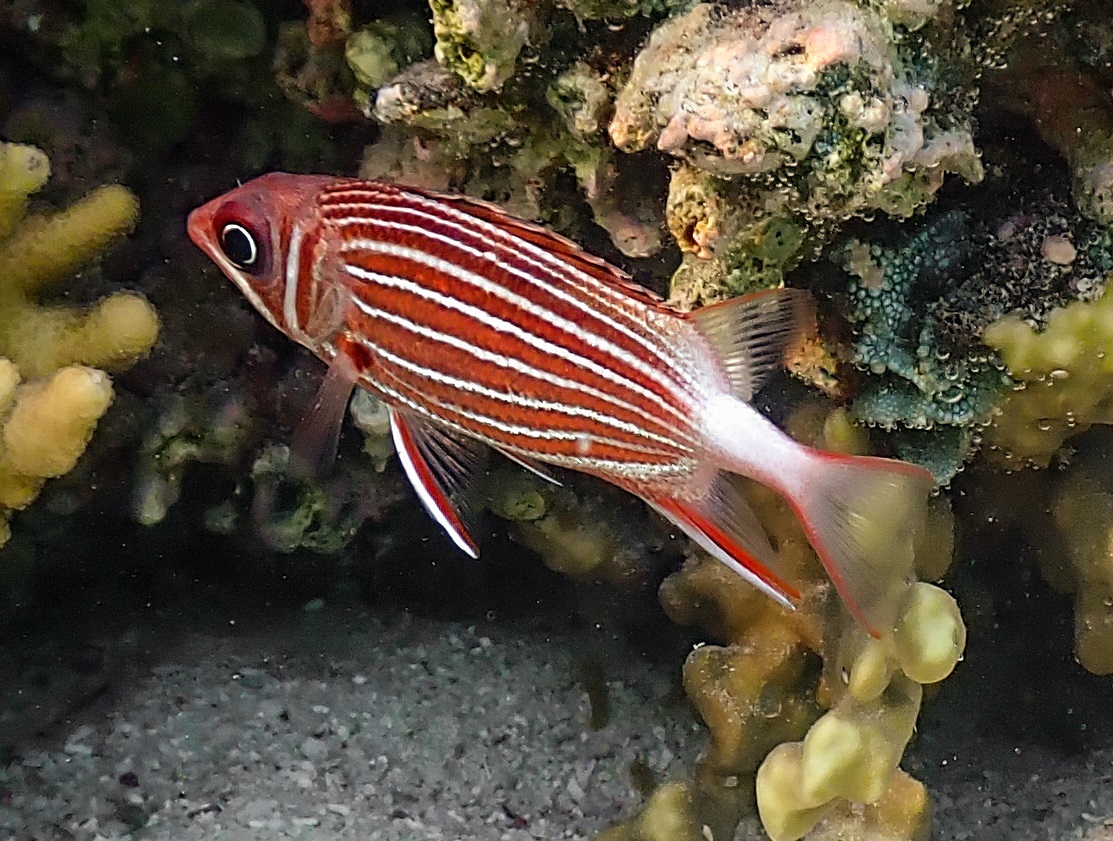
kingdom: Animalia
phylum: Chordata
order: Beryciformes
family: Holocentridae
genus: Sargocentron
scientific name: Sargocentron diadema
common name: Crown squirrelfish
